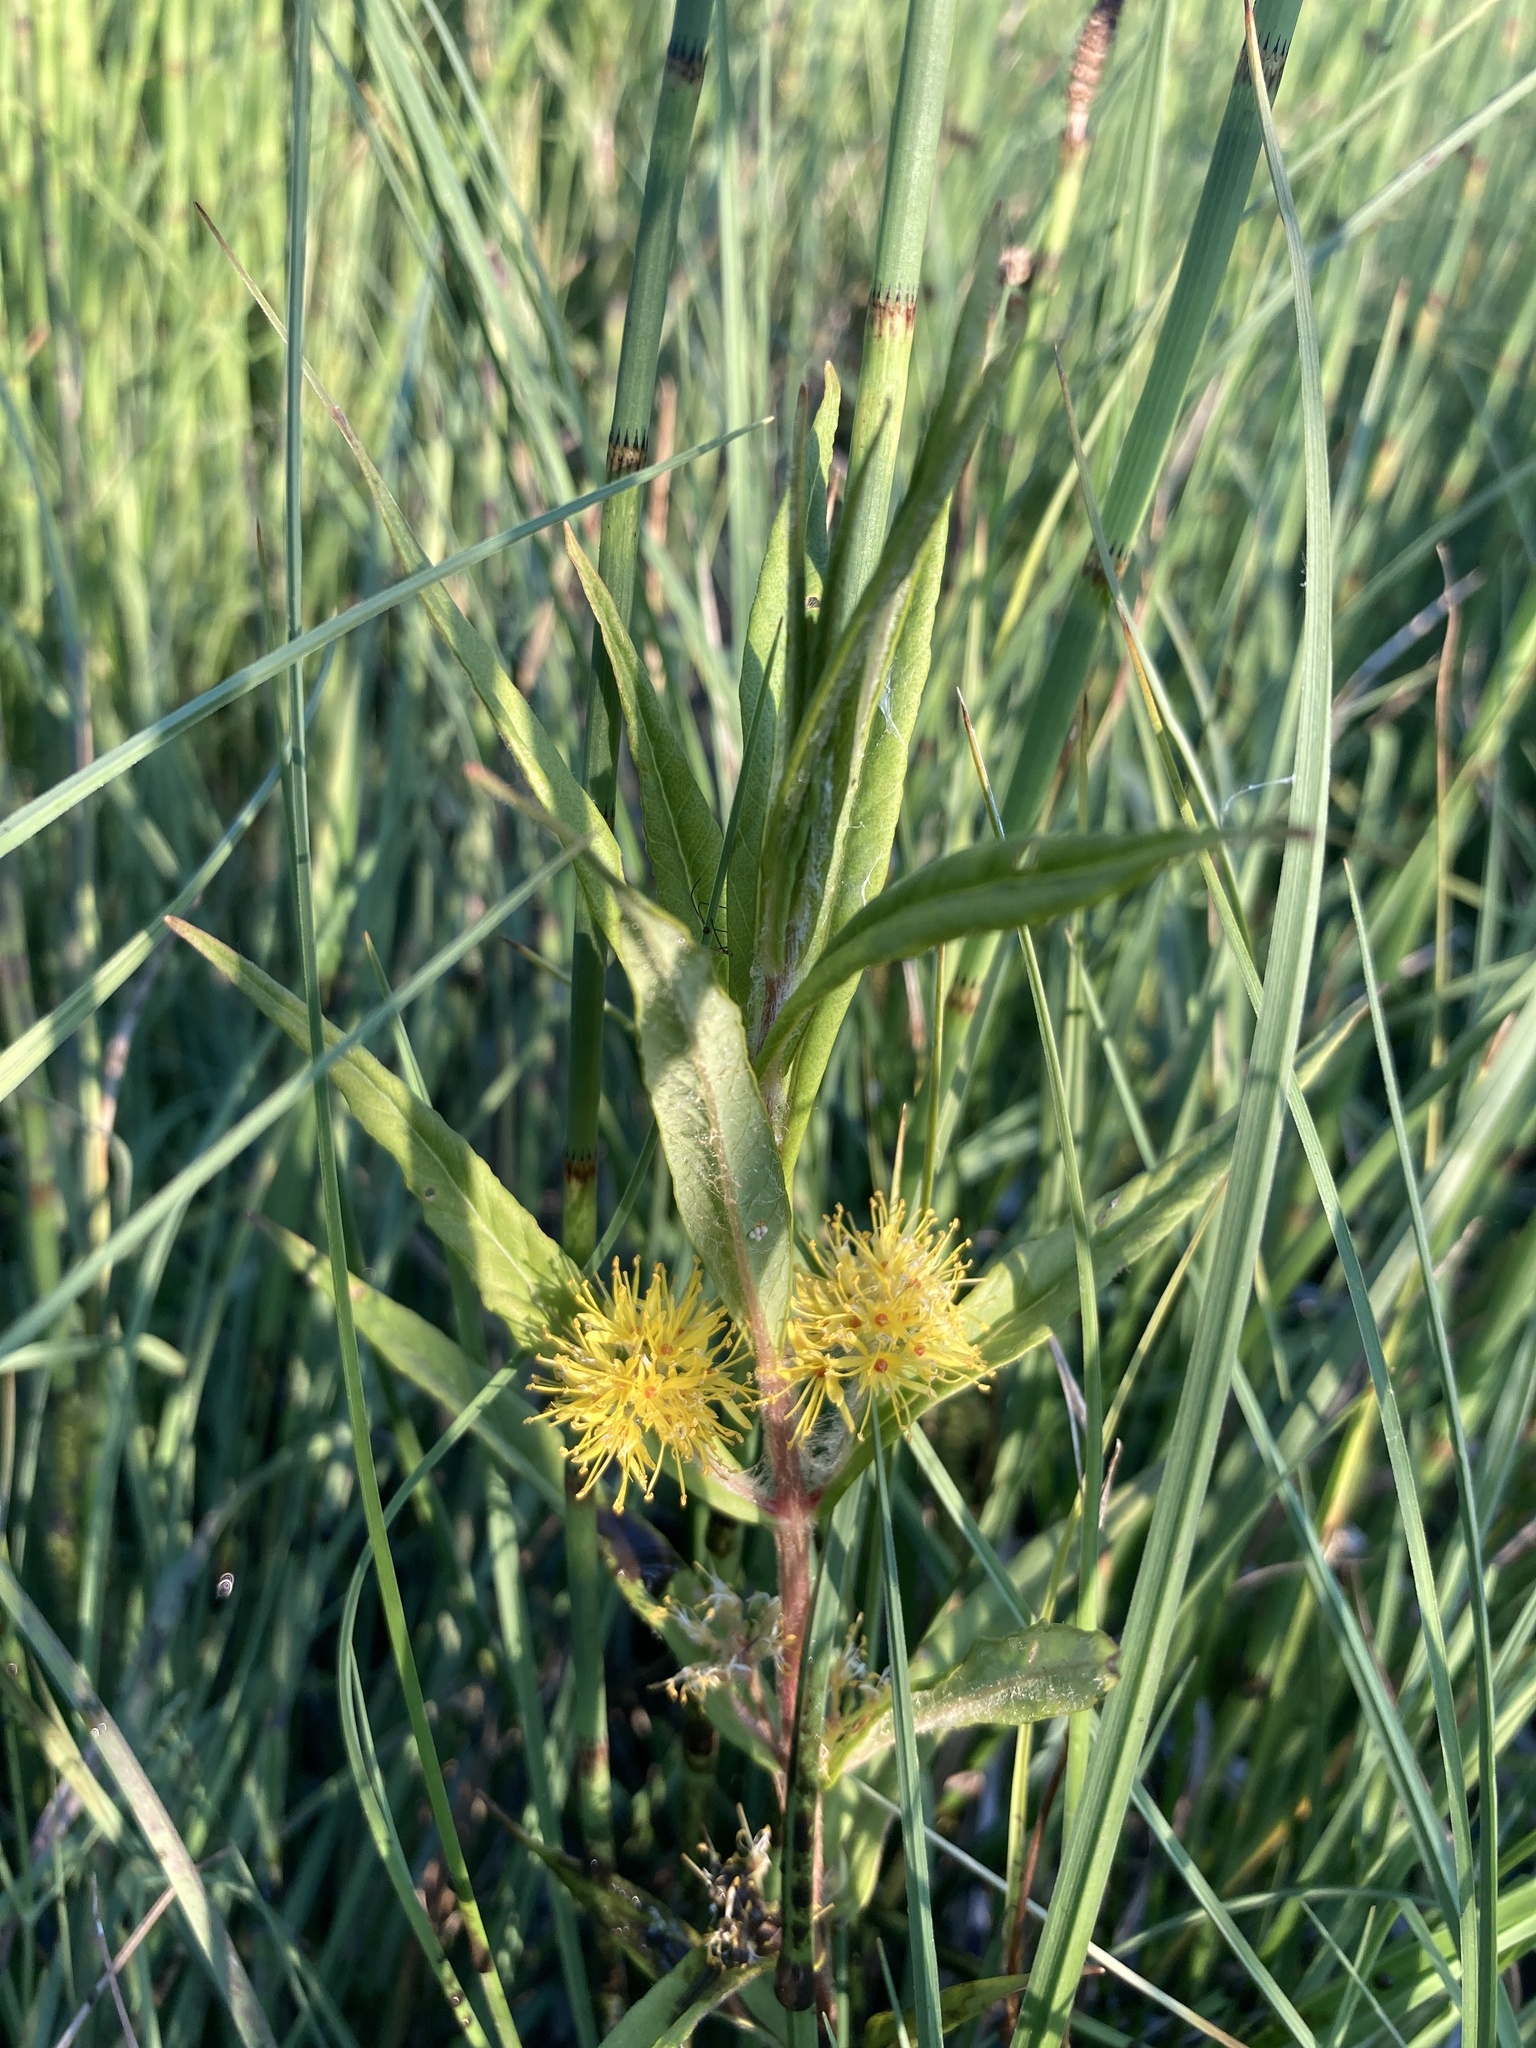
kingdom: Plantae
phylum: Tracheophyta
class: Magnoliopsida
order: Ericales
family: Primulaceae
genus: Lysimachia
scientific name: Lysimachia thyrsiflora
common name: Tufted loosestrife
